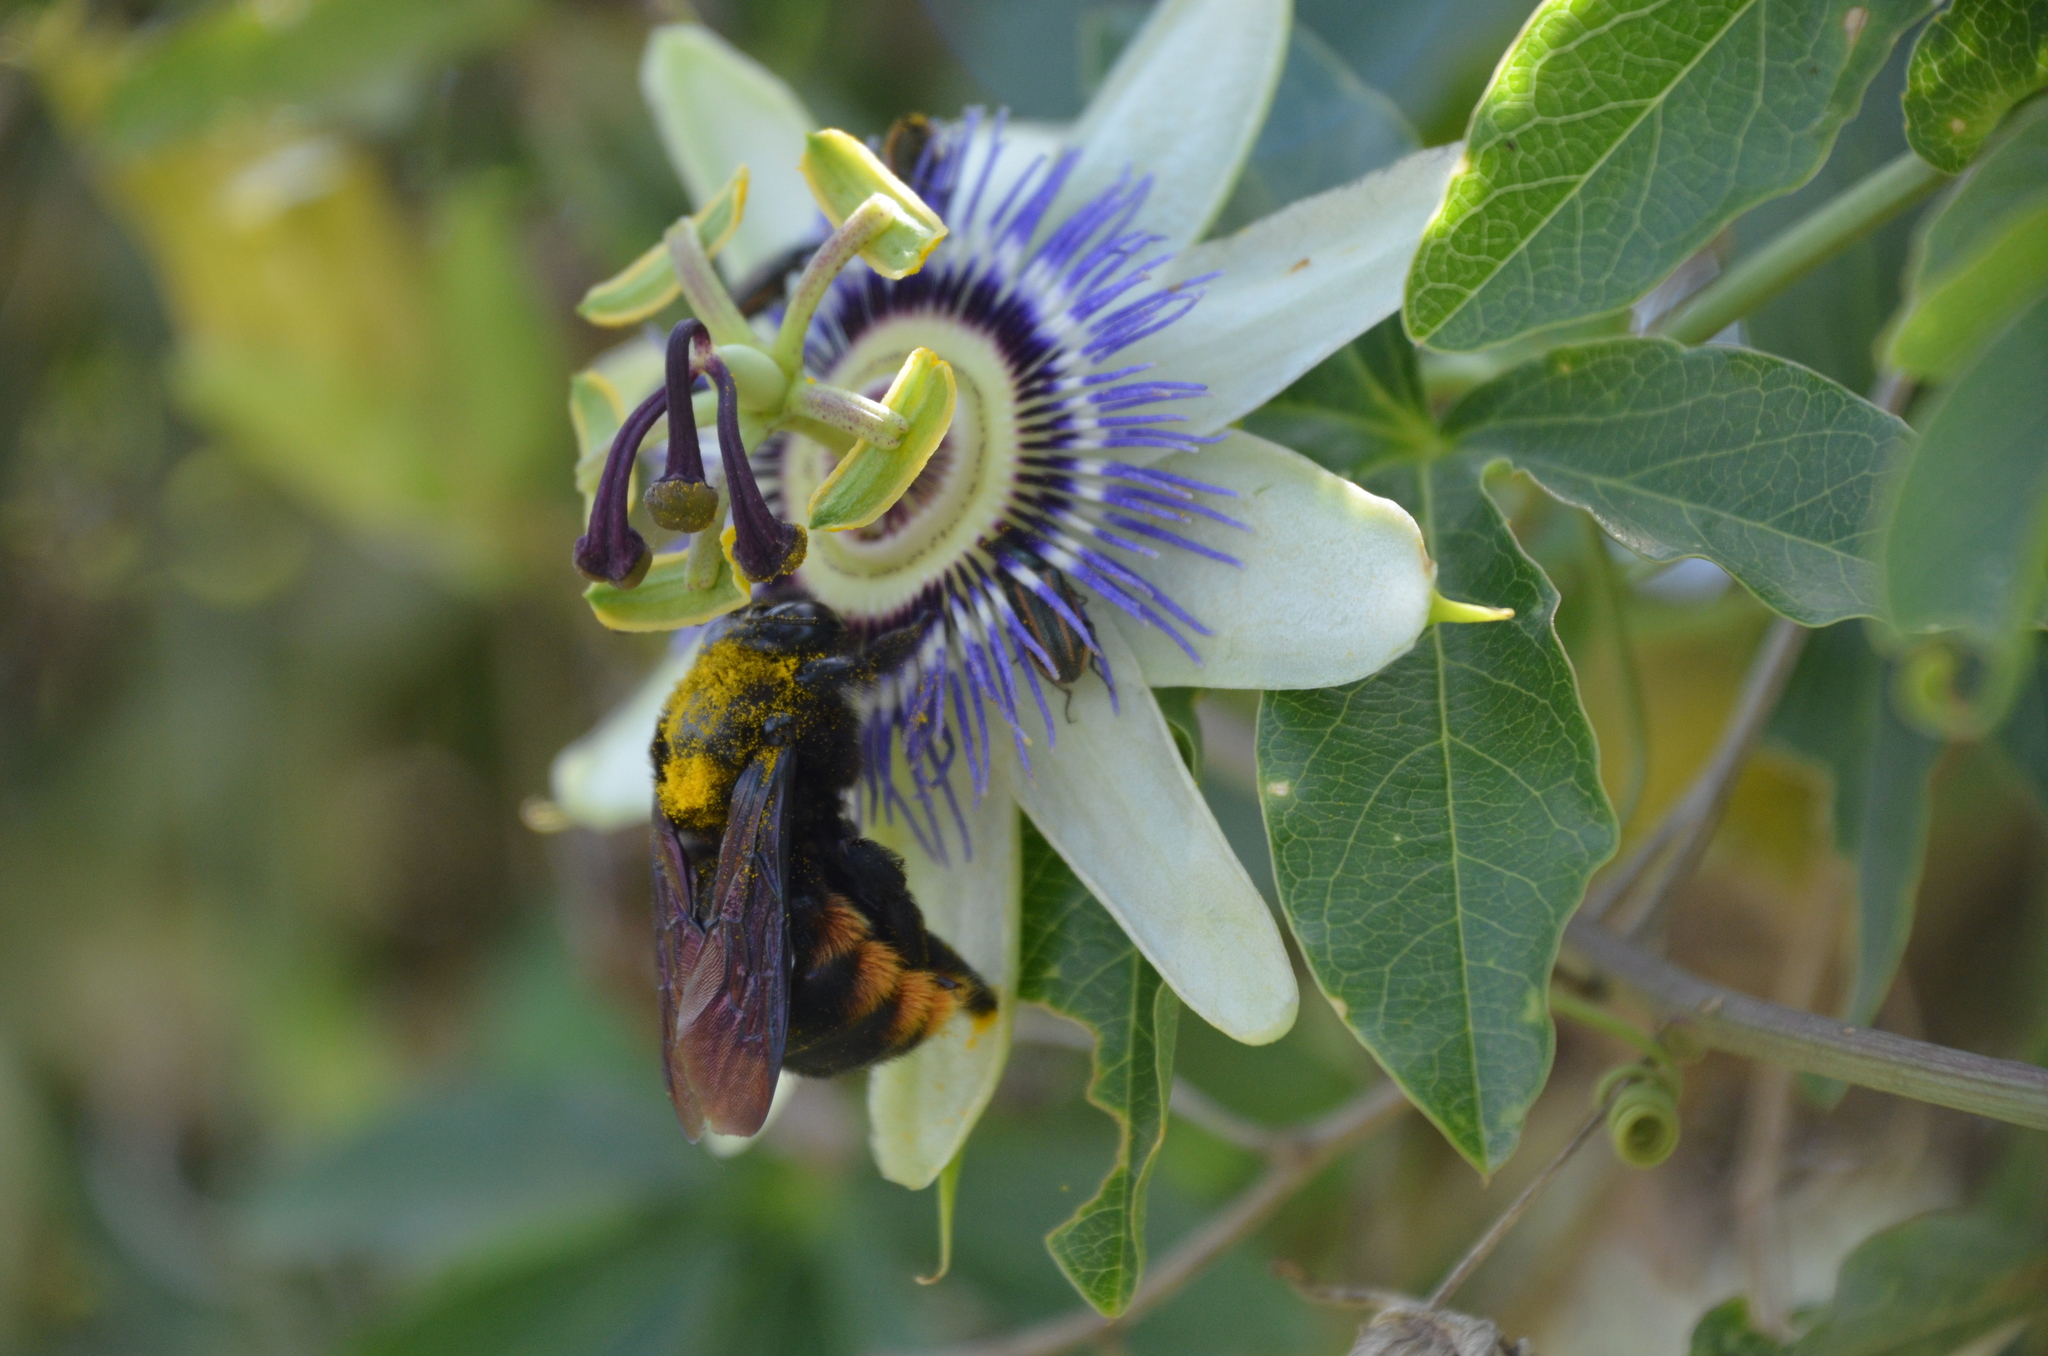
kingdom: Animalia
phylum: Arthropoda
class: Insecta
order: Hymenoptera
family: Apidae
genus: Xylocopa
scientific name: Xylocopa augusti
